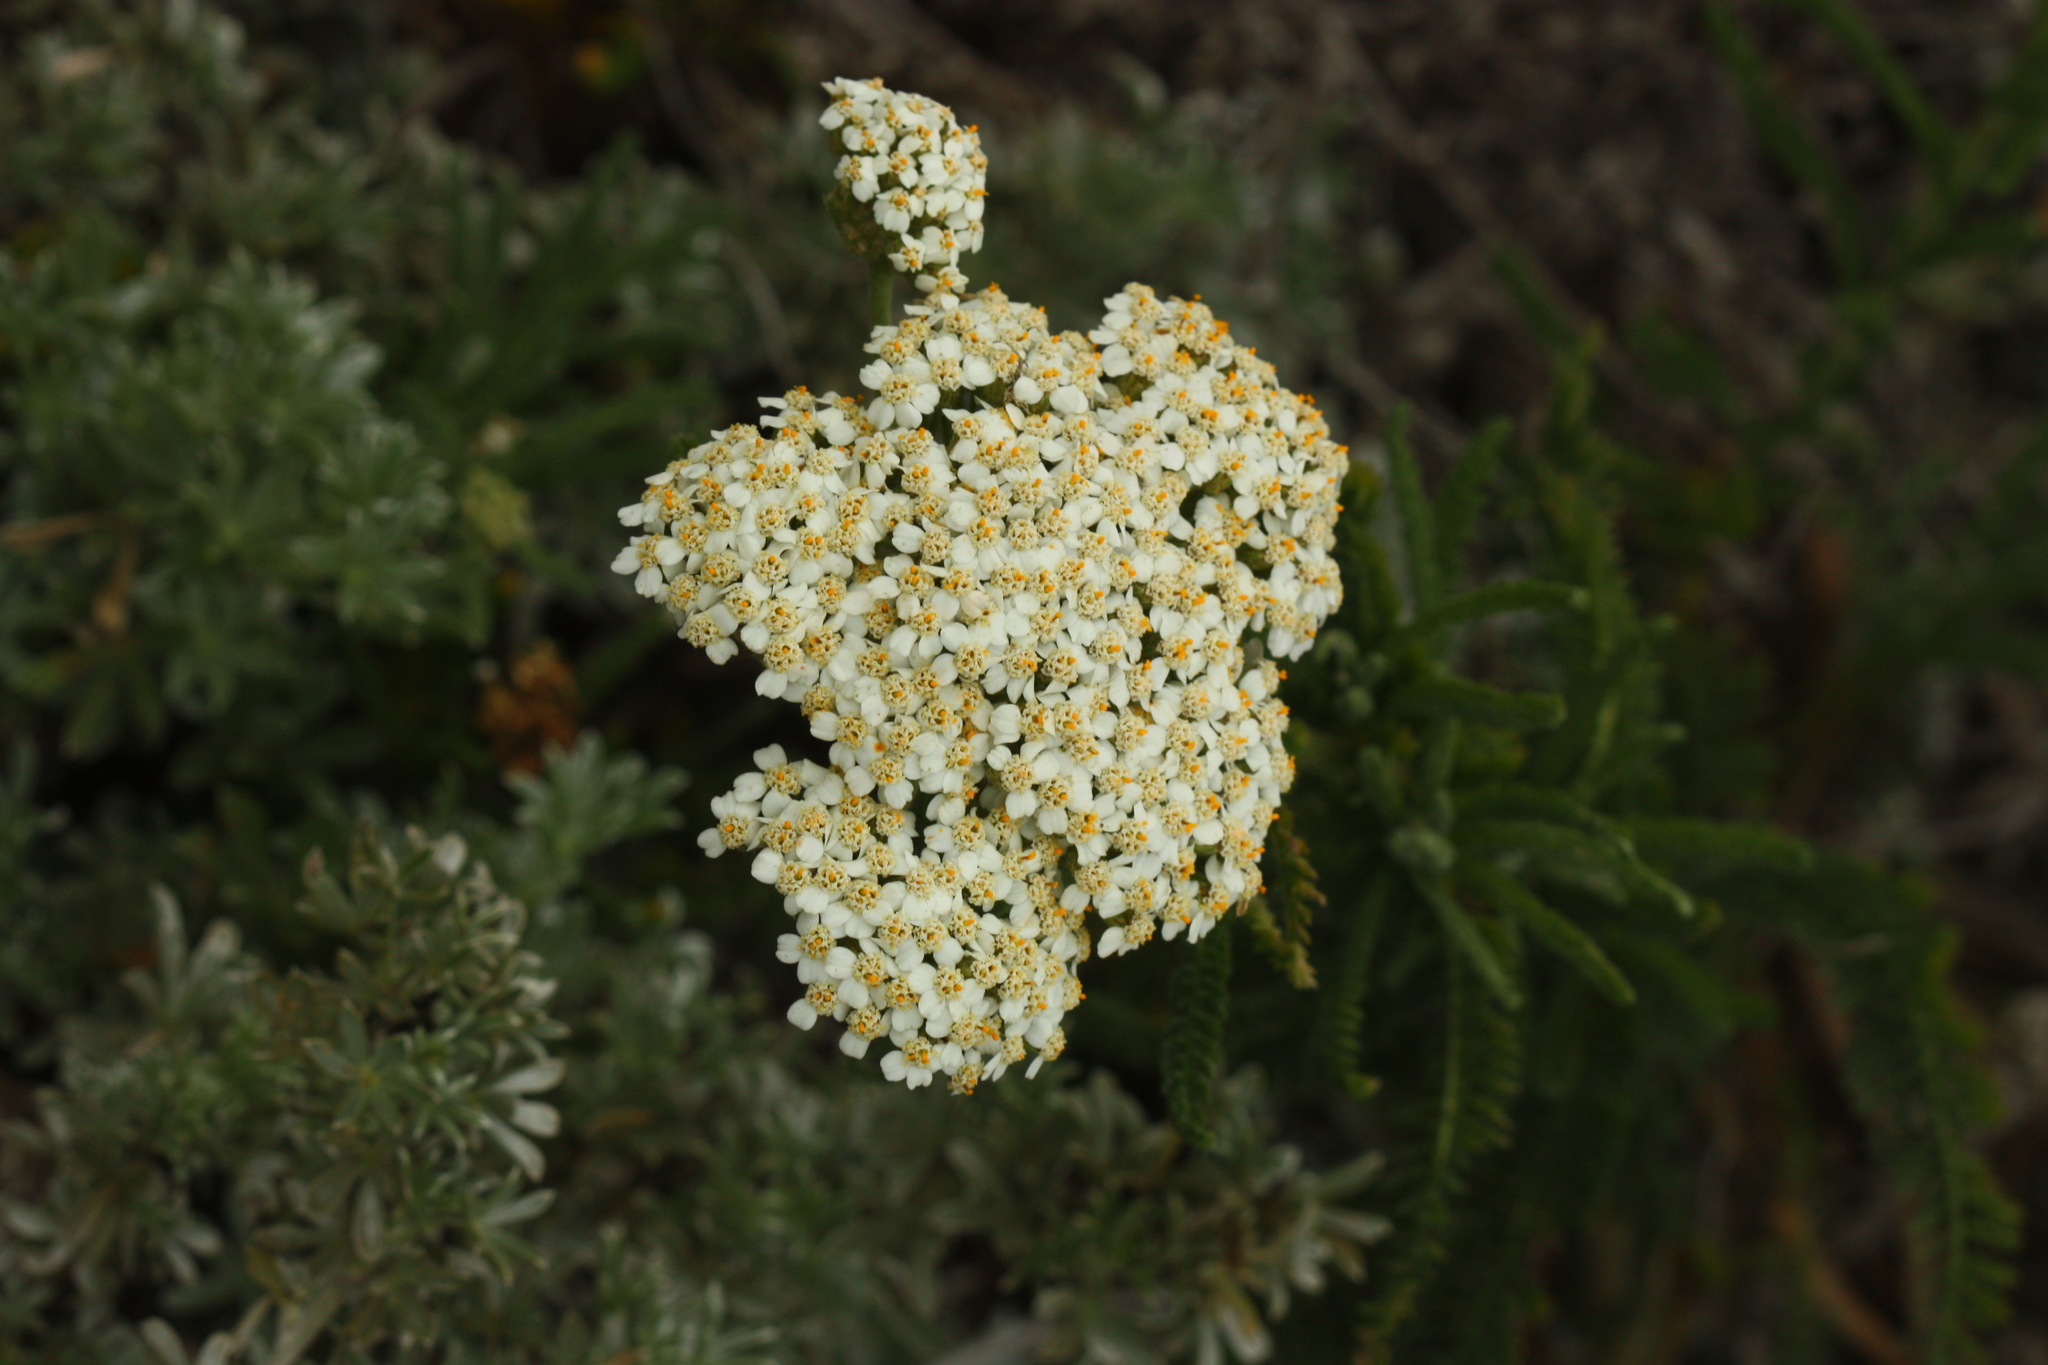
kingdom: Plantae
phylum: Tracheophyta
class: Magnoliopsida
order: Asterales
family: Asteraceae
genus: Achillea
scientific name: Achillea millefolium
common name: Yarrow
